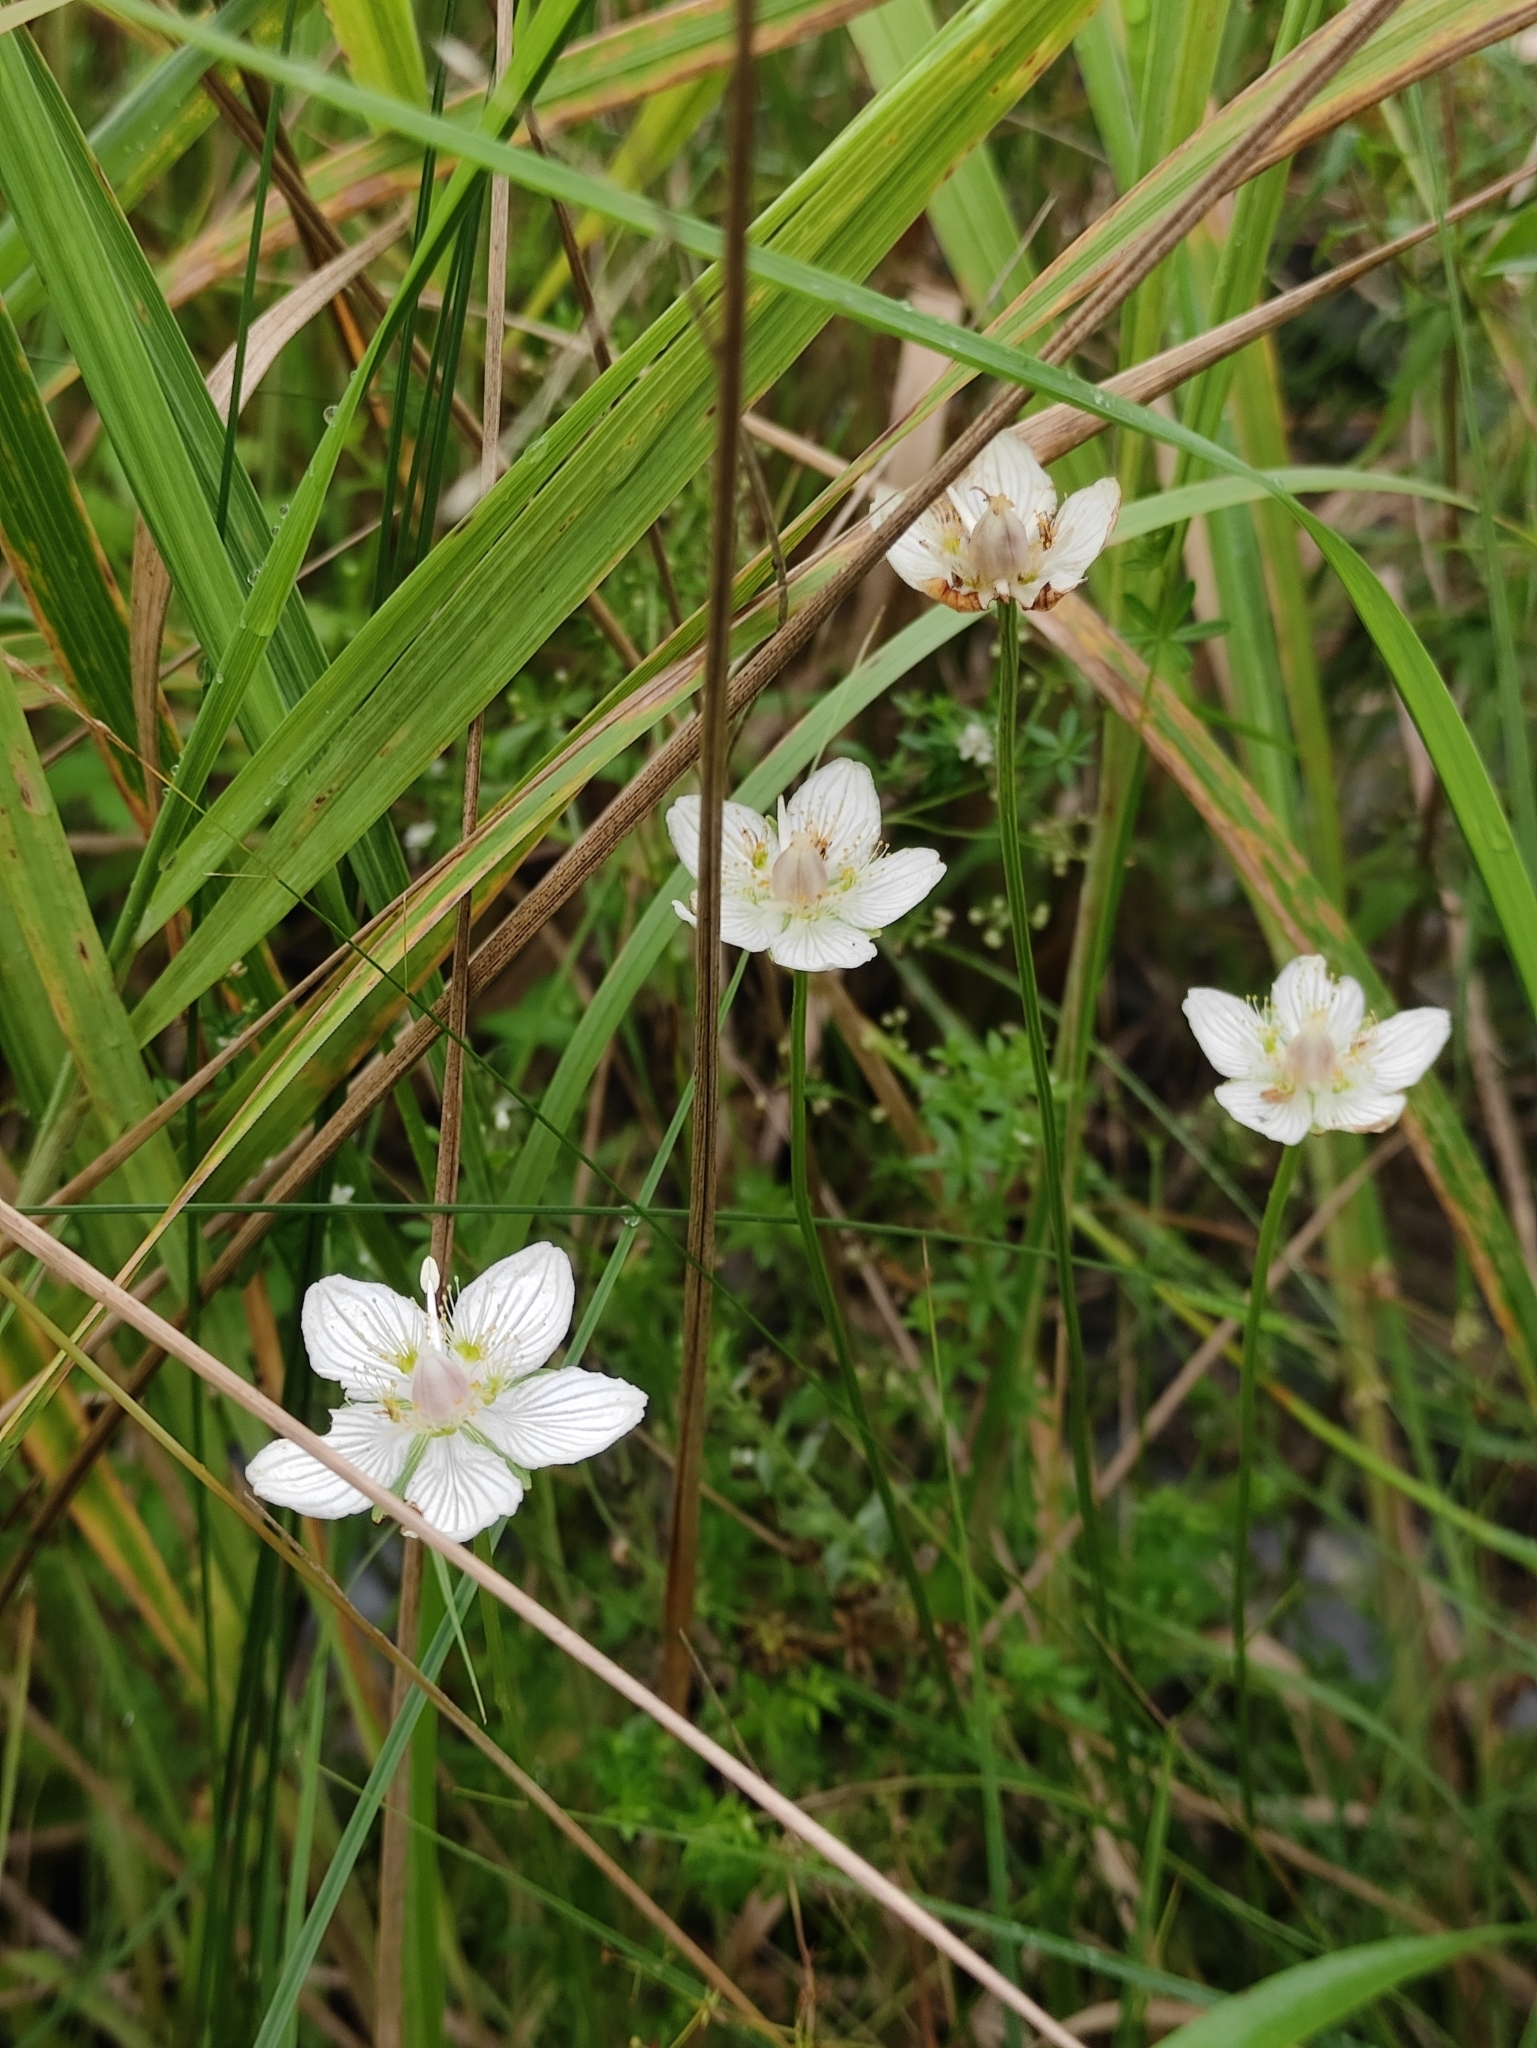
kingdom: Plantae
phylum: Tracheophyta
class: Magnoliopsida
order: Celastrales
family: Parnassiaceae
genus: Parnassia
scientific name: Parnassia palustris
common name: Grass-of-parnassus
